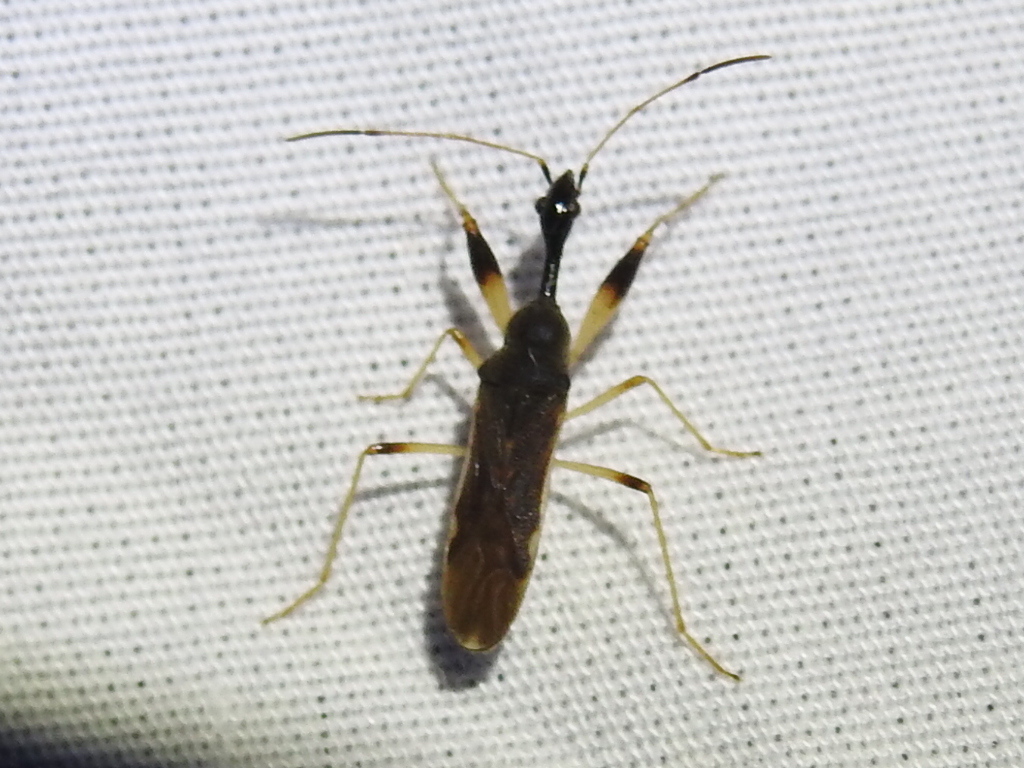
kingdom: Animalia
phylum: Arthropoda
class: Insecta
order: Hemiptera
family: Rhyparochromidae
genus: Myodocha
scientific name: Myodocha serripes
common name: Long-necked seed bug
